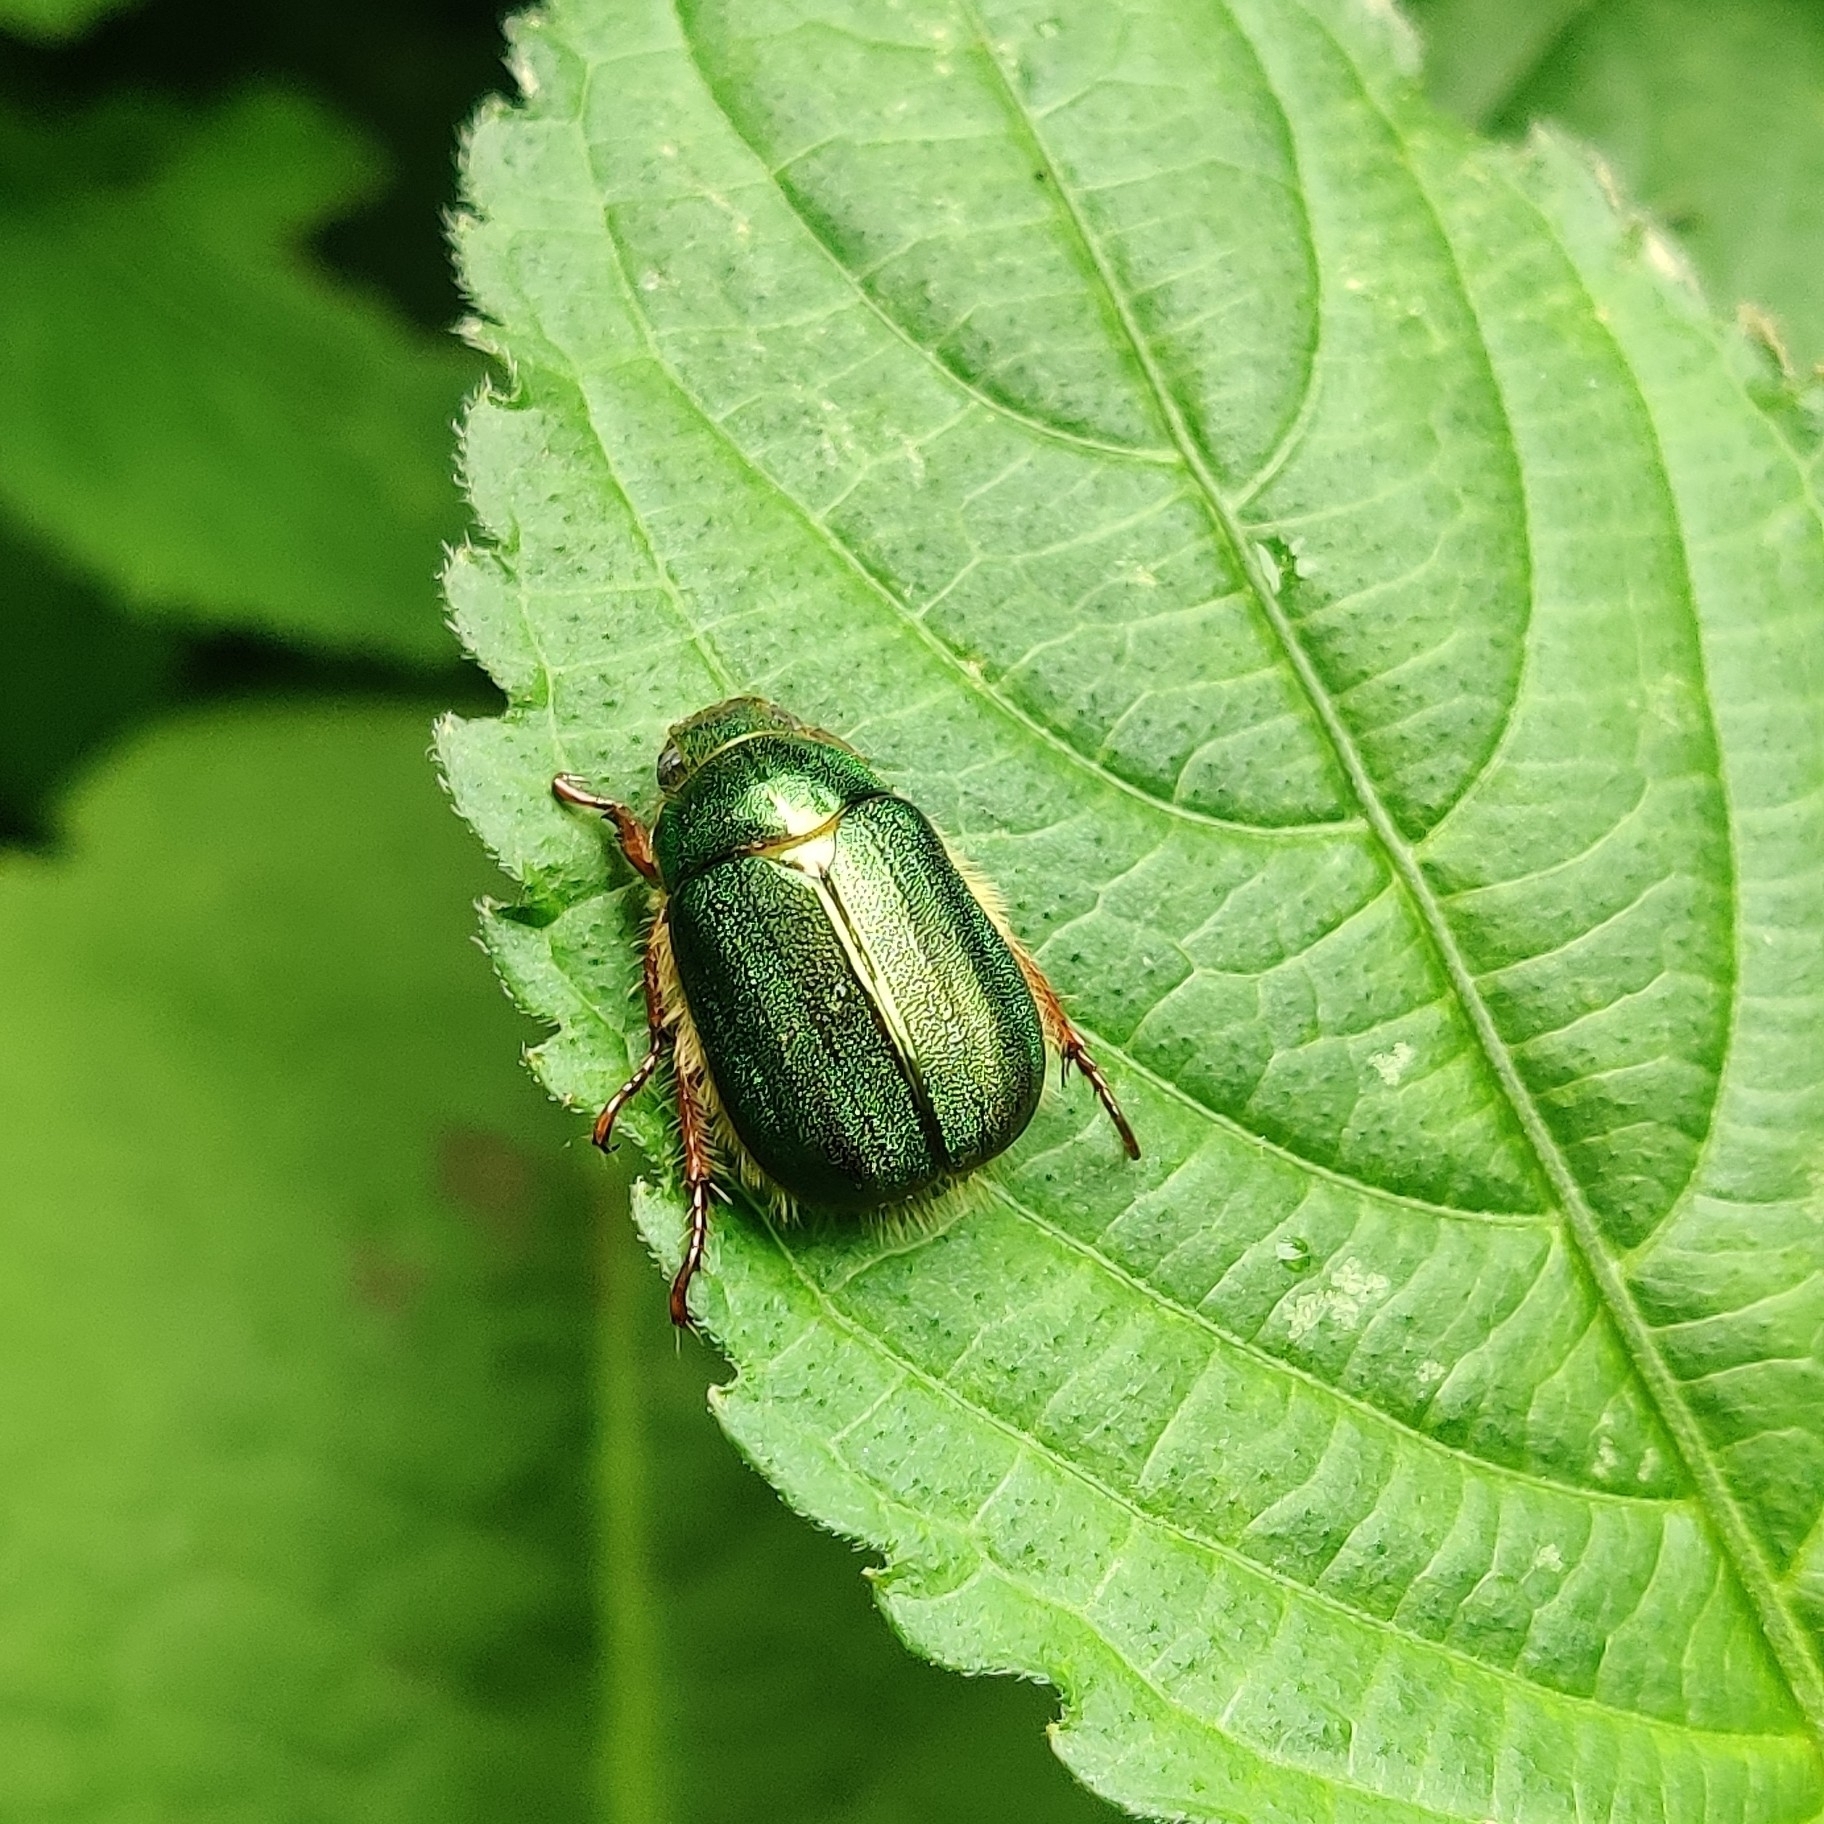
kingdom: Animalia
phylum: Arthropoda
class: Insecta
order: Coleoptera
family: Scarabaeidae
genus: Mimela
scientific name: Mimela pectoralis
